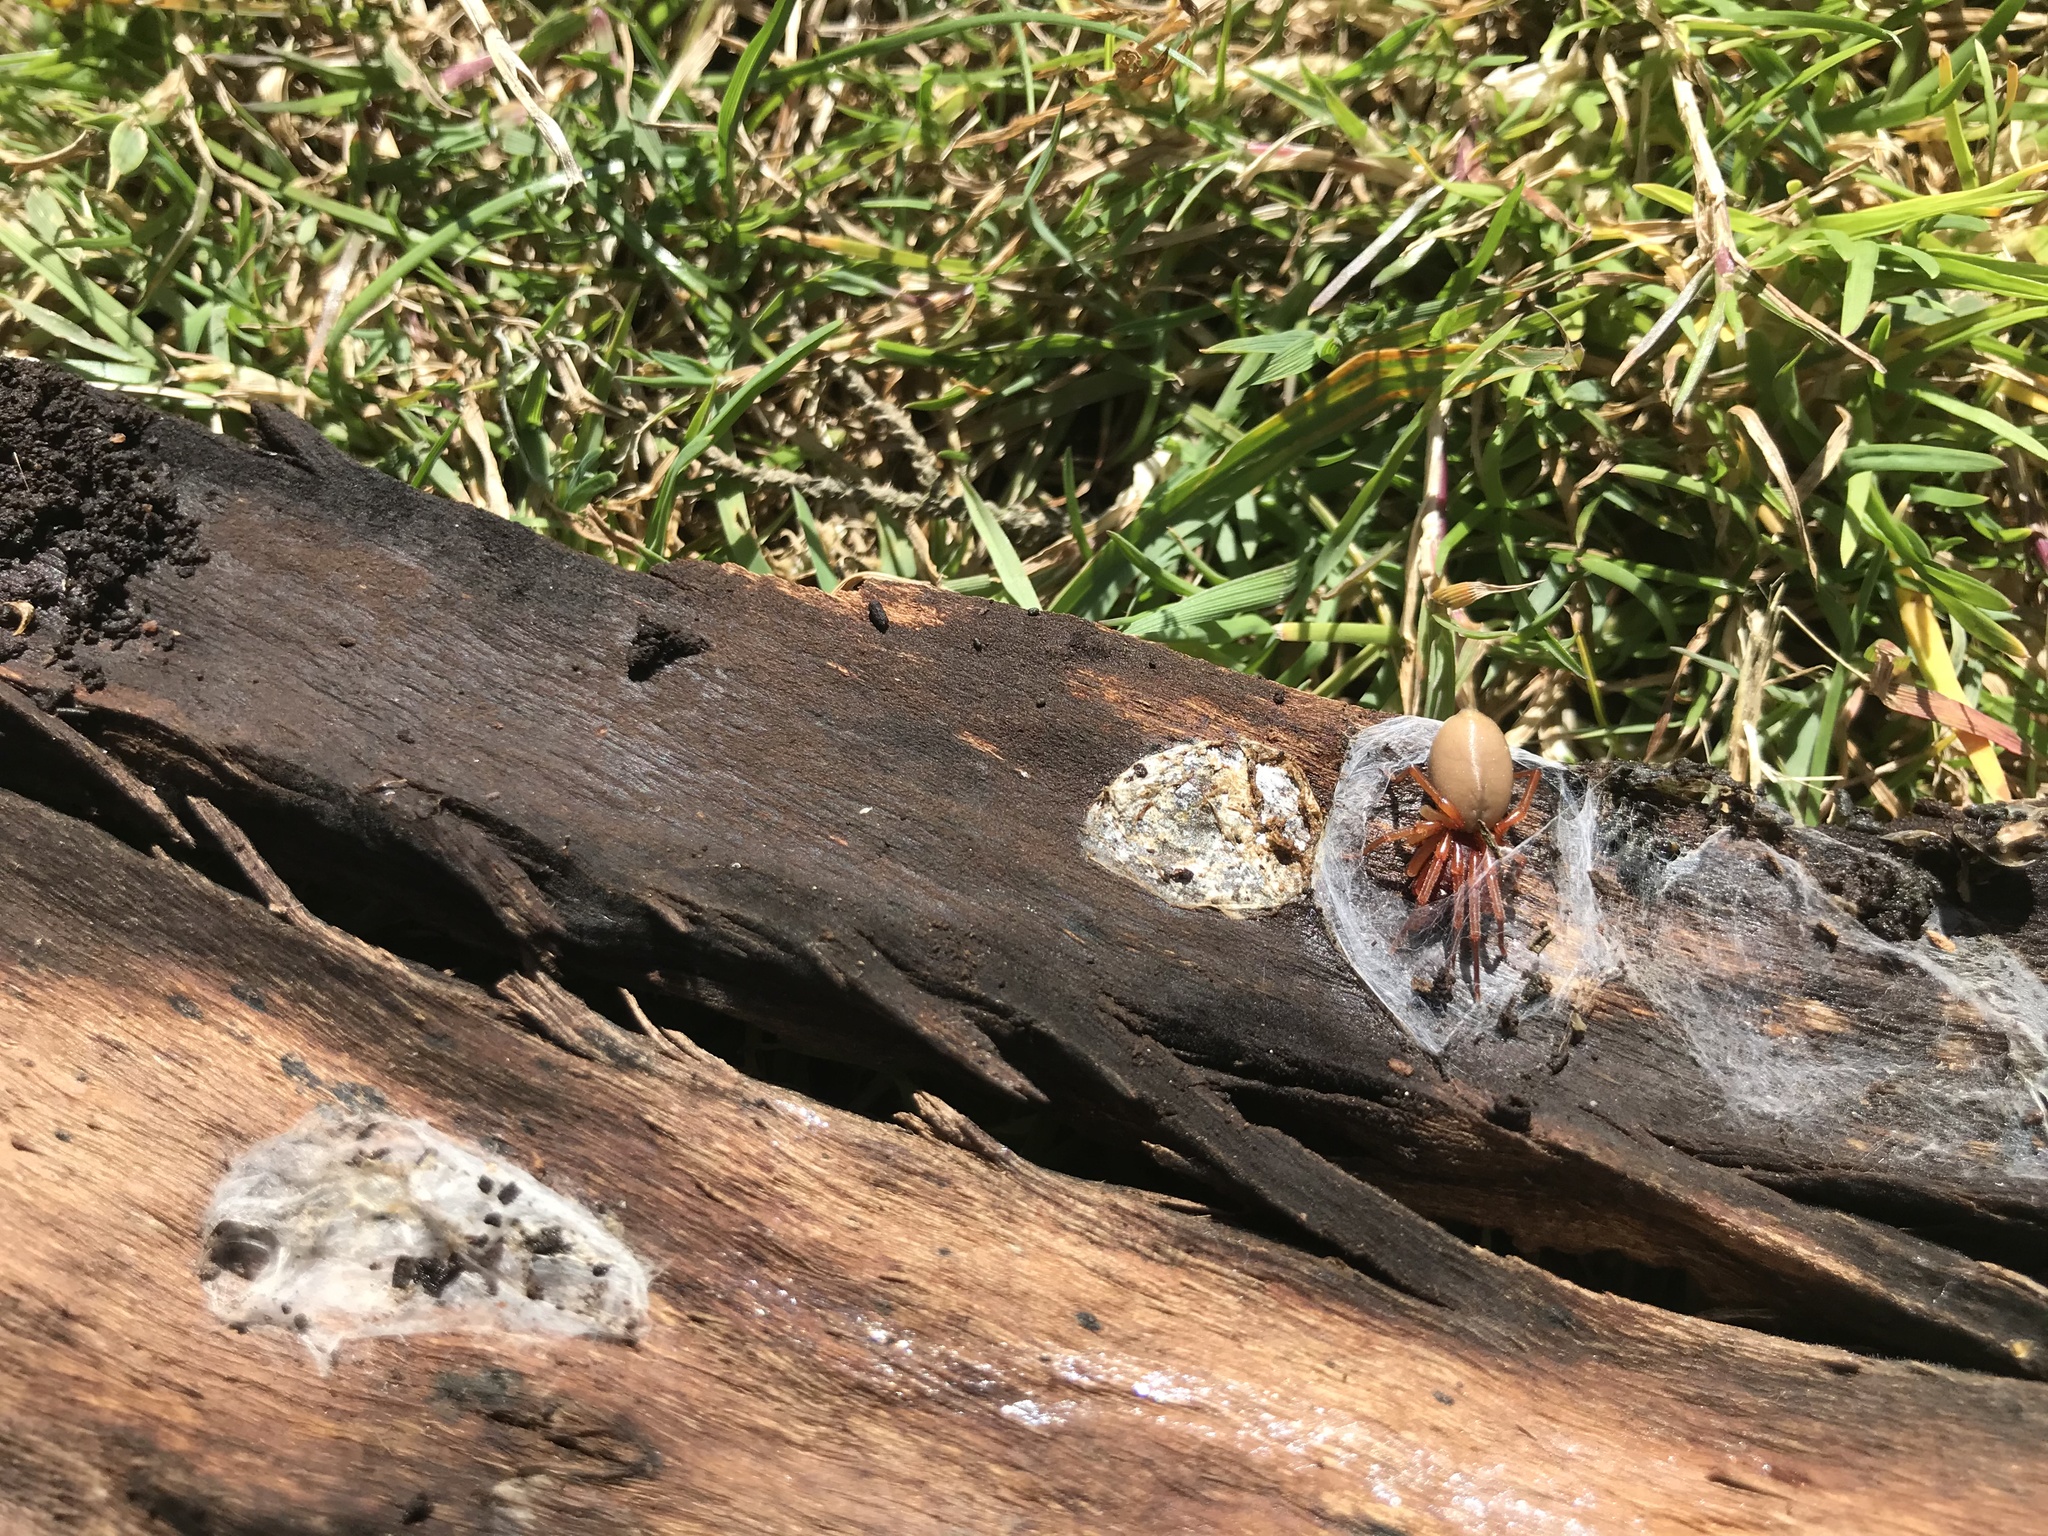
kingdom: Animalia
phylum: Arthropoda
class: Arachnida
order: Araneae
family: Dysderidae
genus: Dysdera
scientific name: Dysdera crocata
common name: Woodlouse spider
